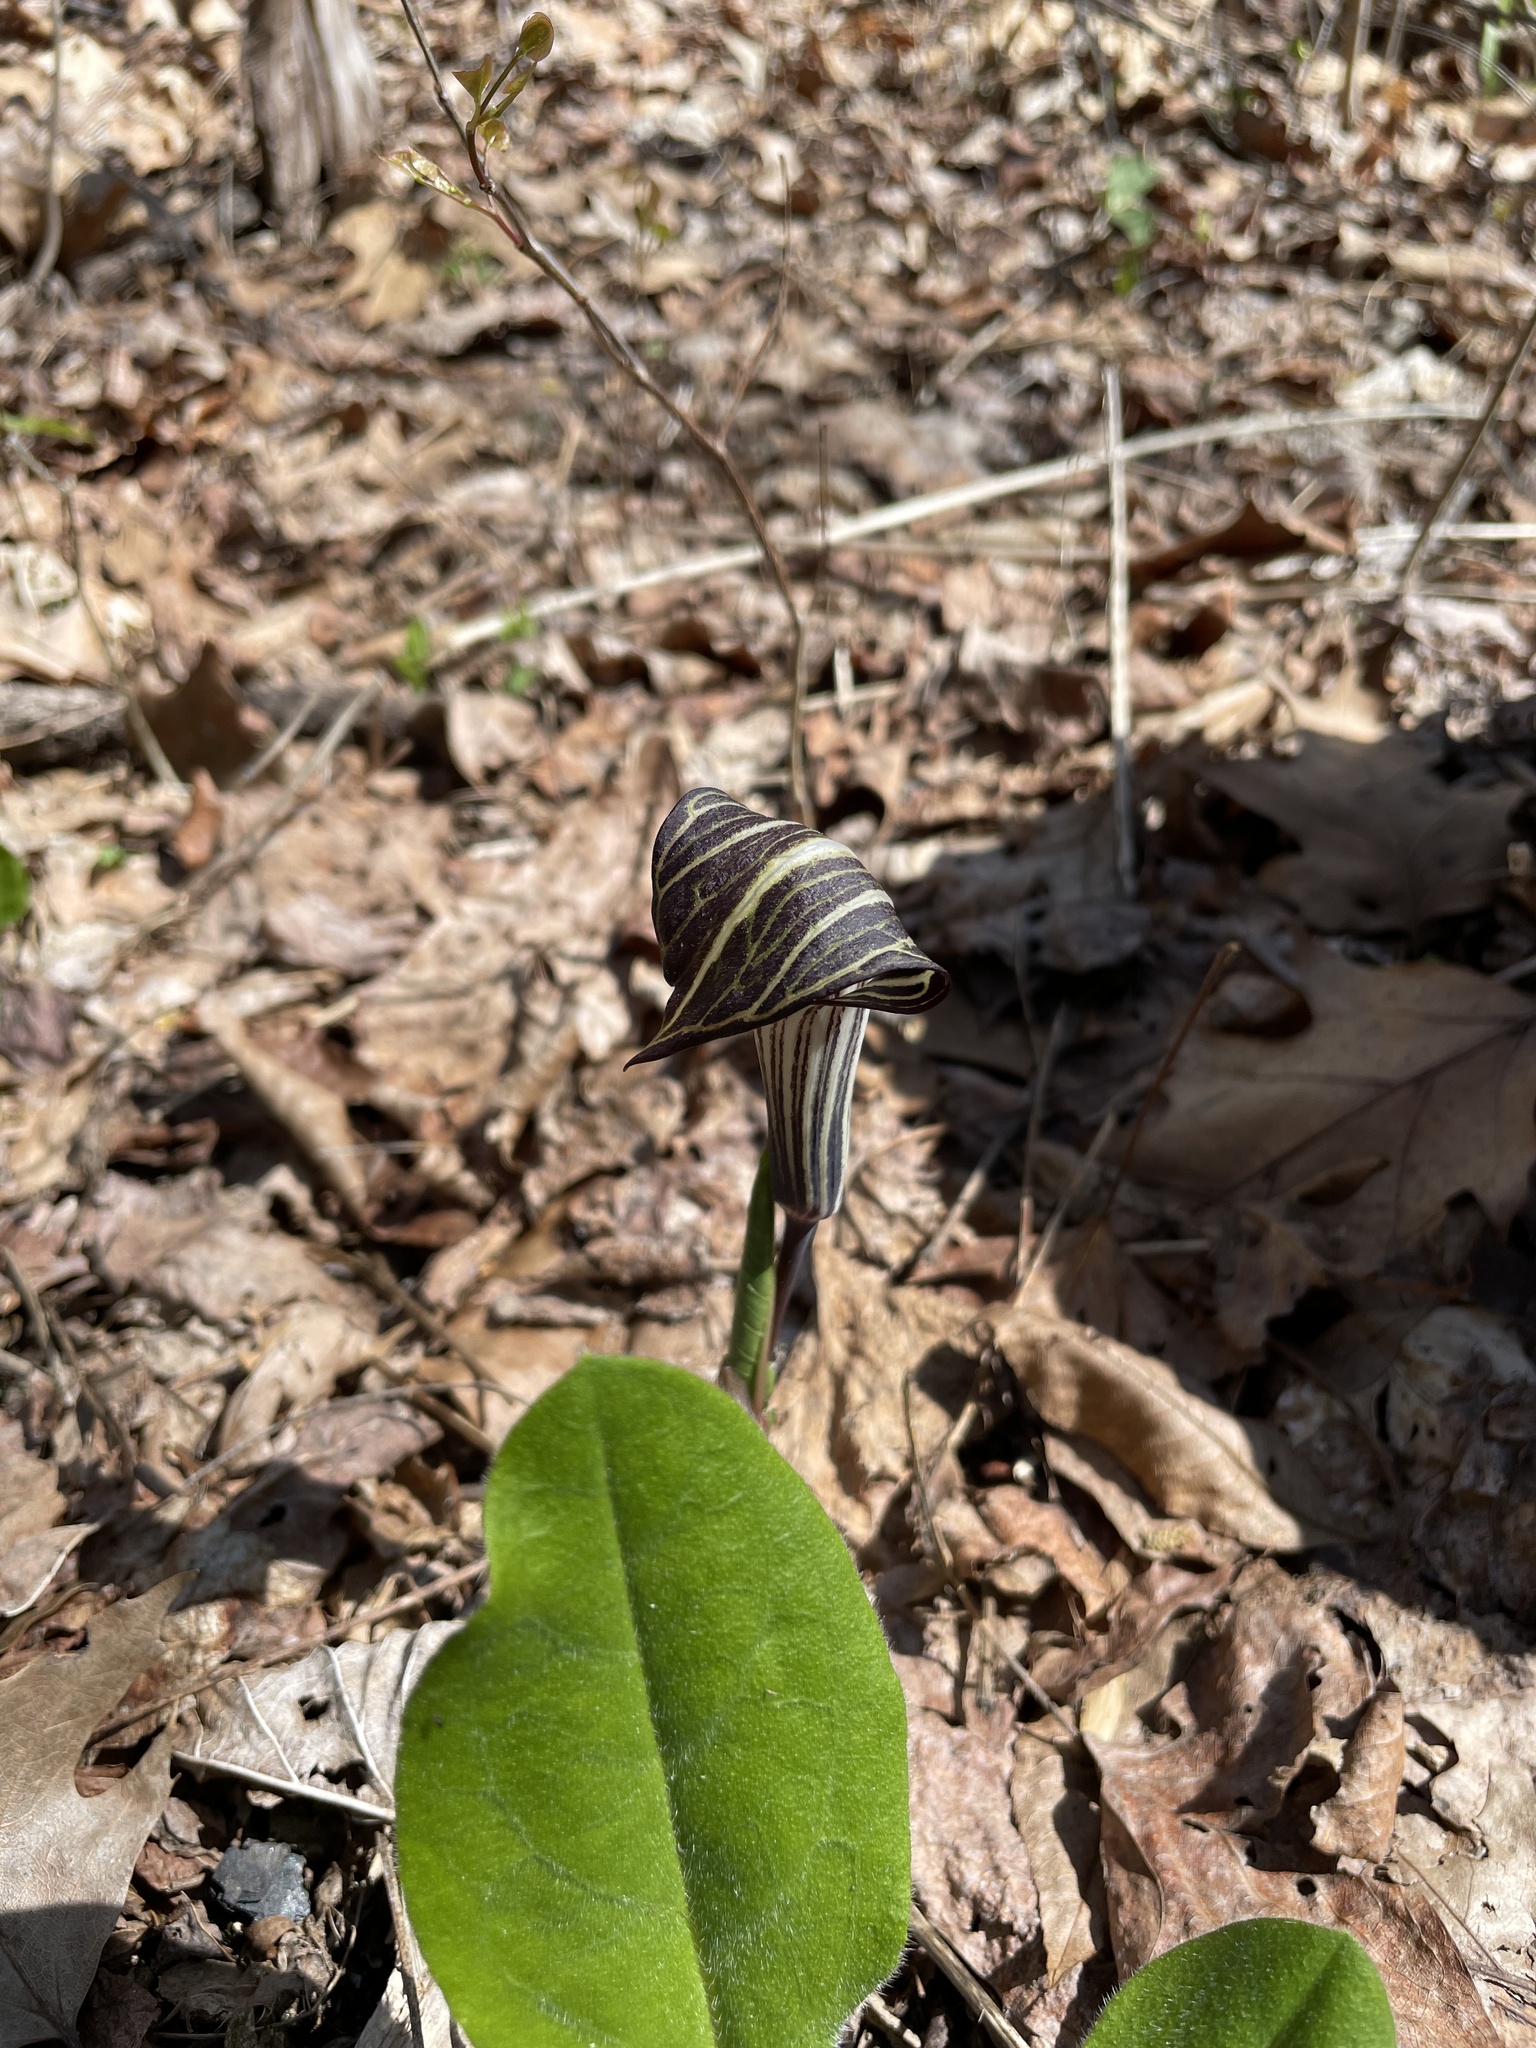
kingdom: Plantae
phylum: Tracheophyta
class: Liliopsida
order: Alismatales
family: Araceae
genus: Arisaema
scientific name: Arisaema triphyllum
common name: Jack-in-the-pulpit
